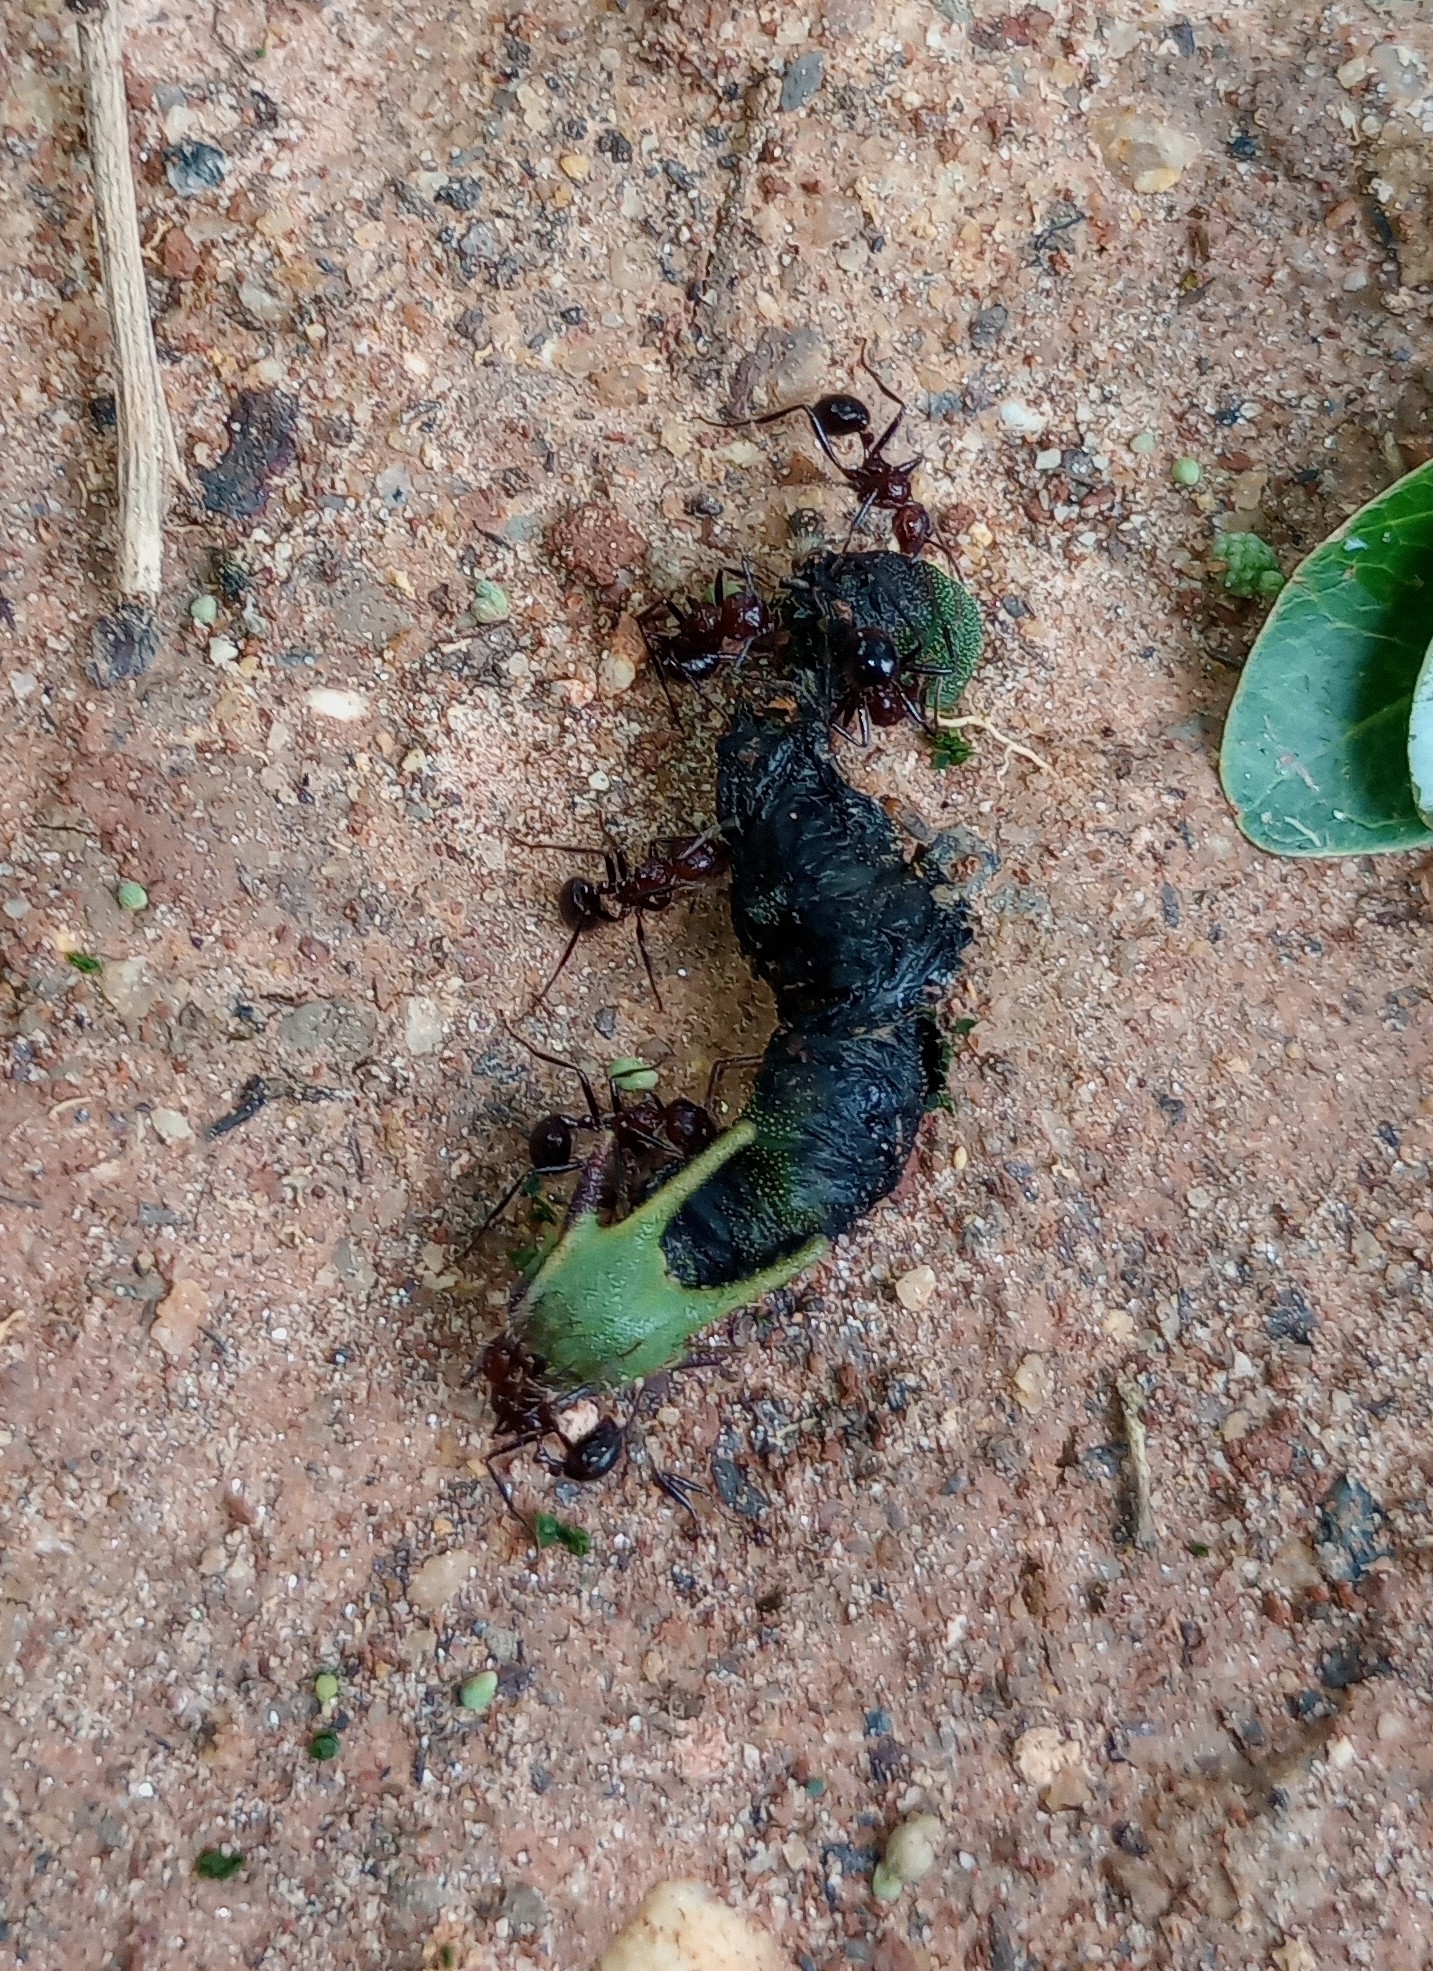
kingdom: Animalia
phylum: Arthropoda
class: Insecta
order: Lepidoptera
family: Nymphalidae
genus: Charaxes
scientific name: Charaxes solon
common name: Black rajah
